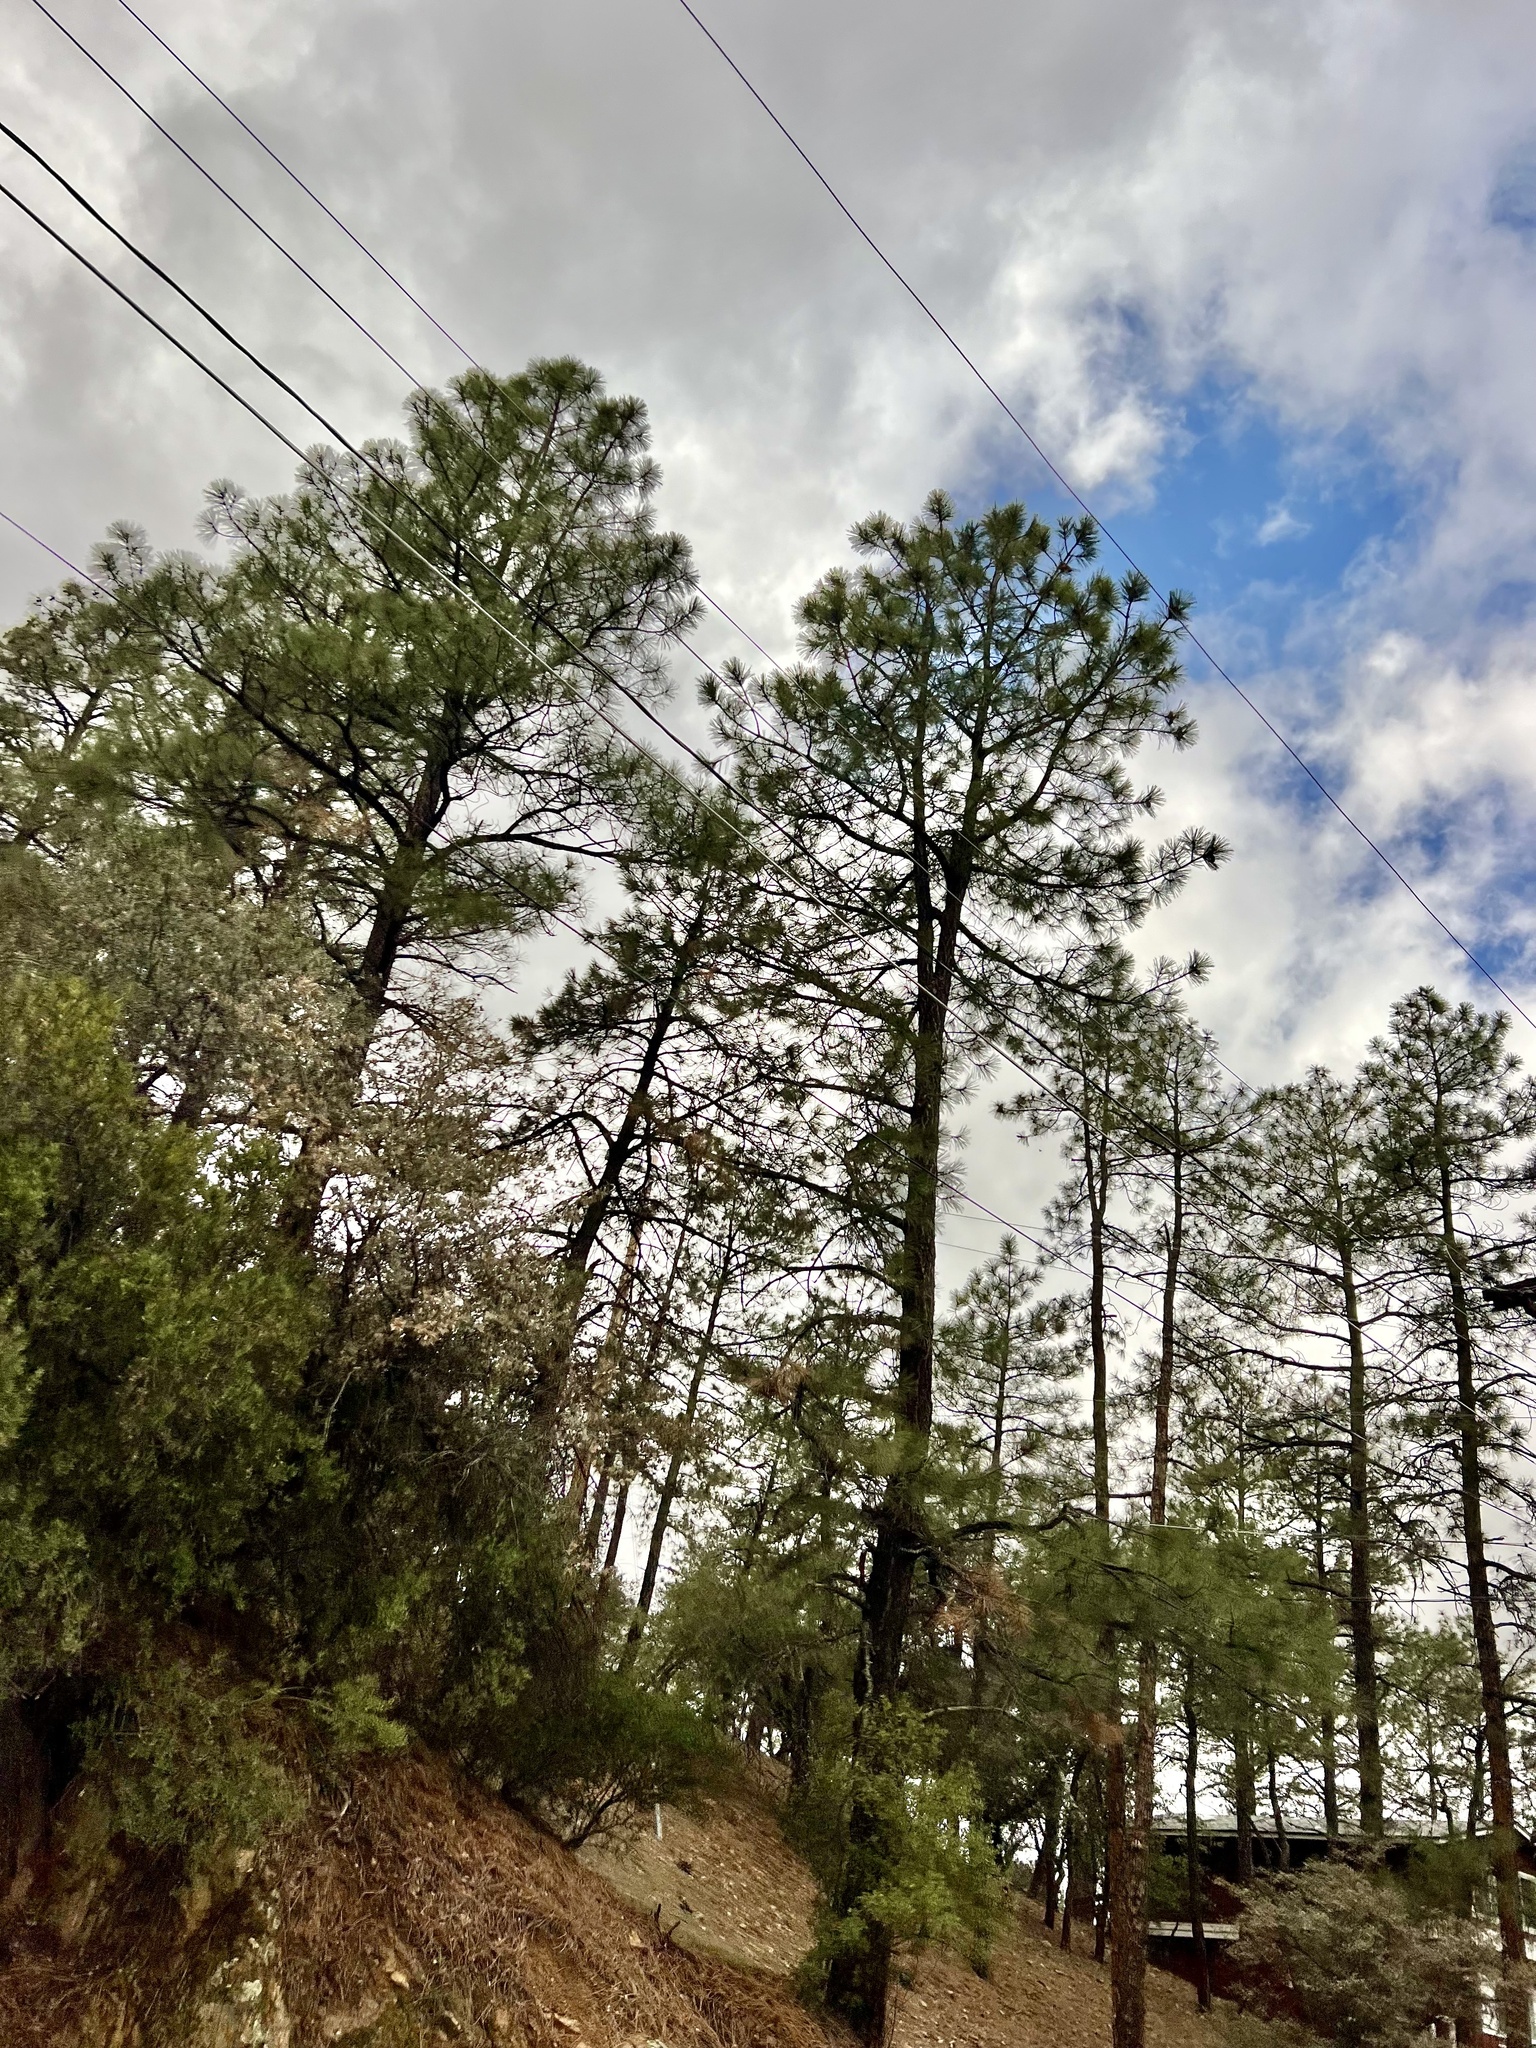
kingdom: Plantae
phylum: Tracheophyta
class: Pinopsida
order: Pinales
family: Pinaceae
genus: Pinus
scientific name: Pinus ponderosa
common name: Western yellow-pine
